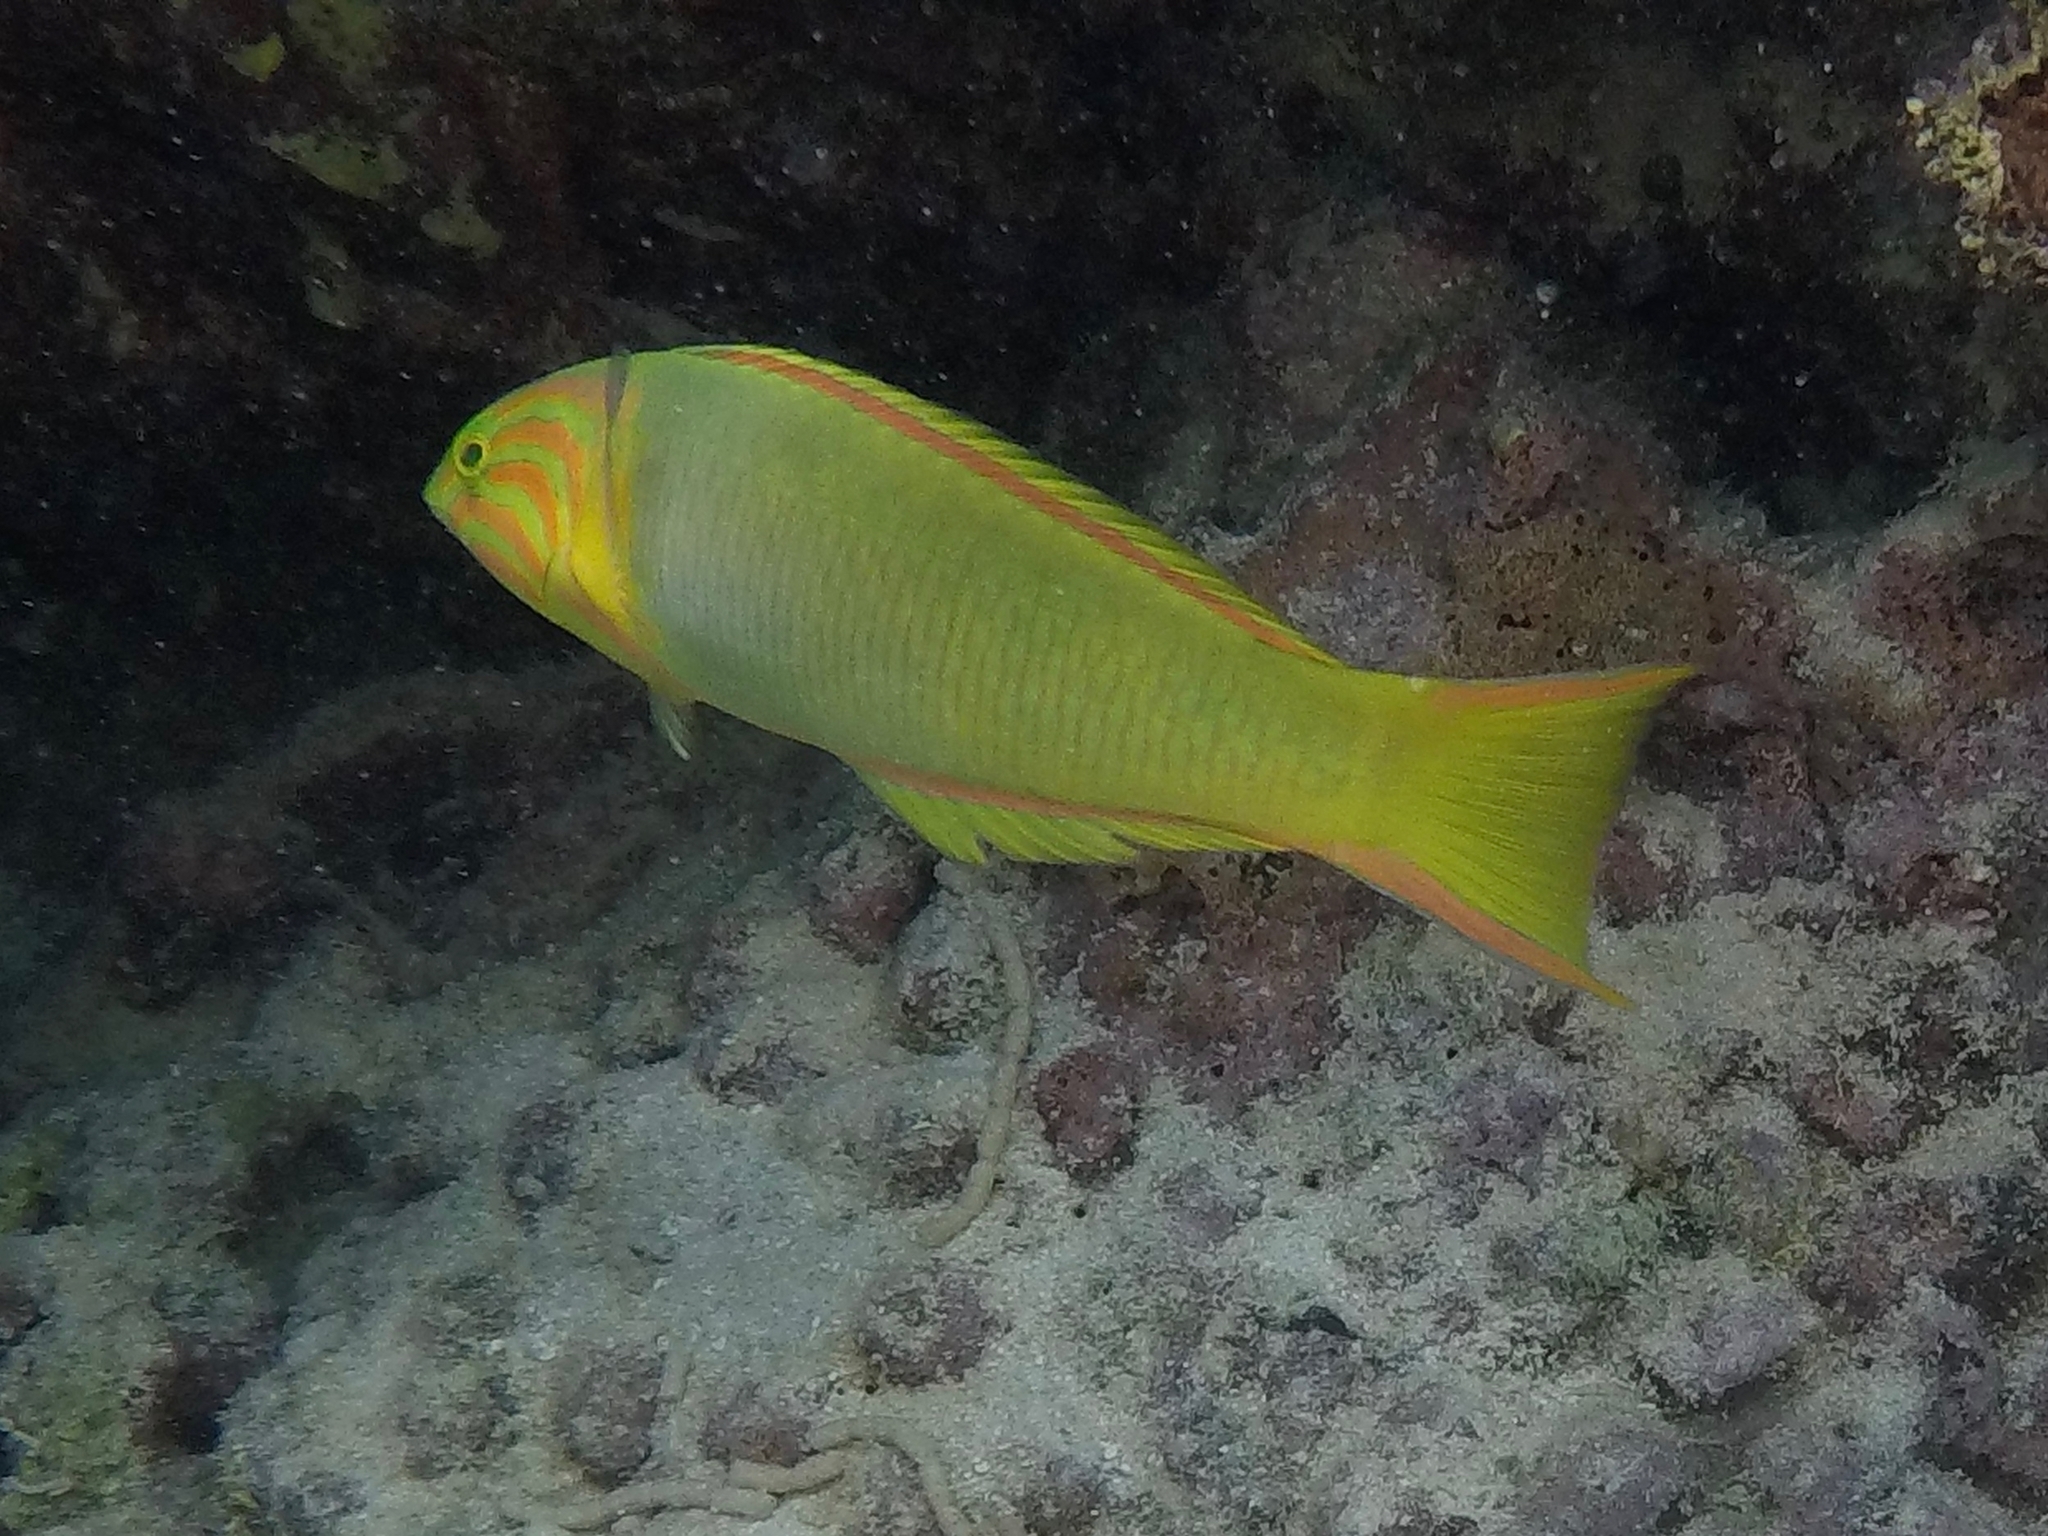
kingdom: Animalia
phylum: Chordata
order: Perciformes
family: Labridae
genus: Thalassoma
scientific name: Thalassoma lutescens
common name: Green moon wrasse
